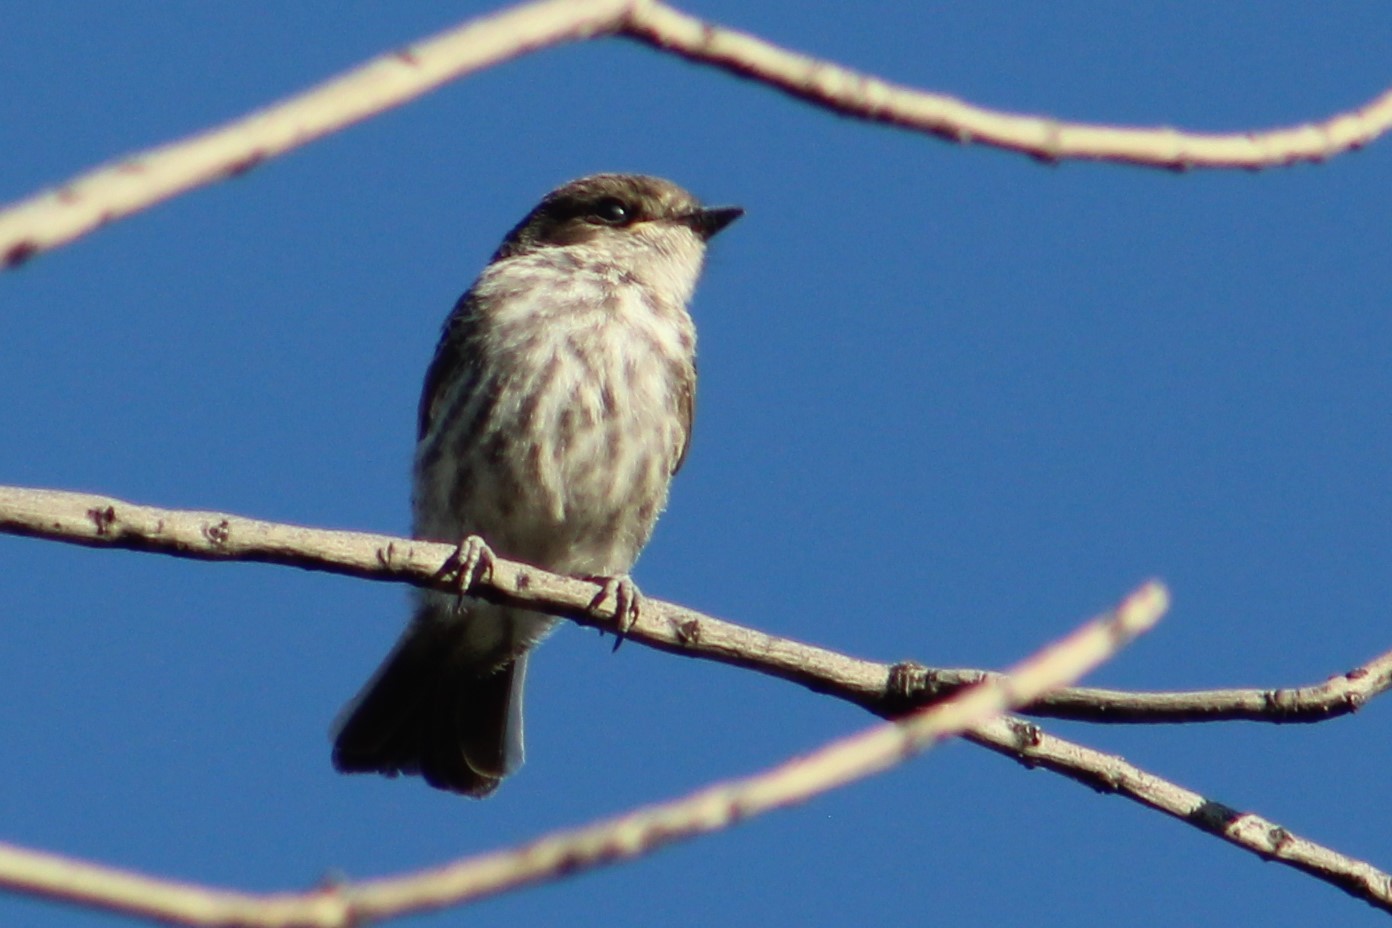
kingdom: Animalia
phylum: Chordata
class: Aves
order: Passeriformes
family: Tyrannidae
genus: Pyrocephalus
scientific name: Pyrocephalus rubinus
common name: Vermilion flycatcher
